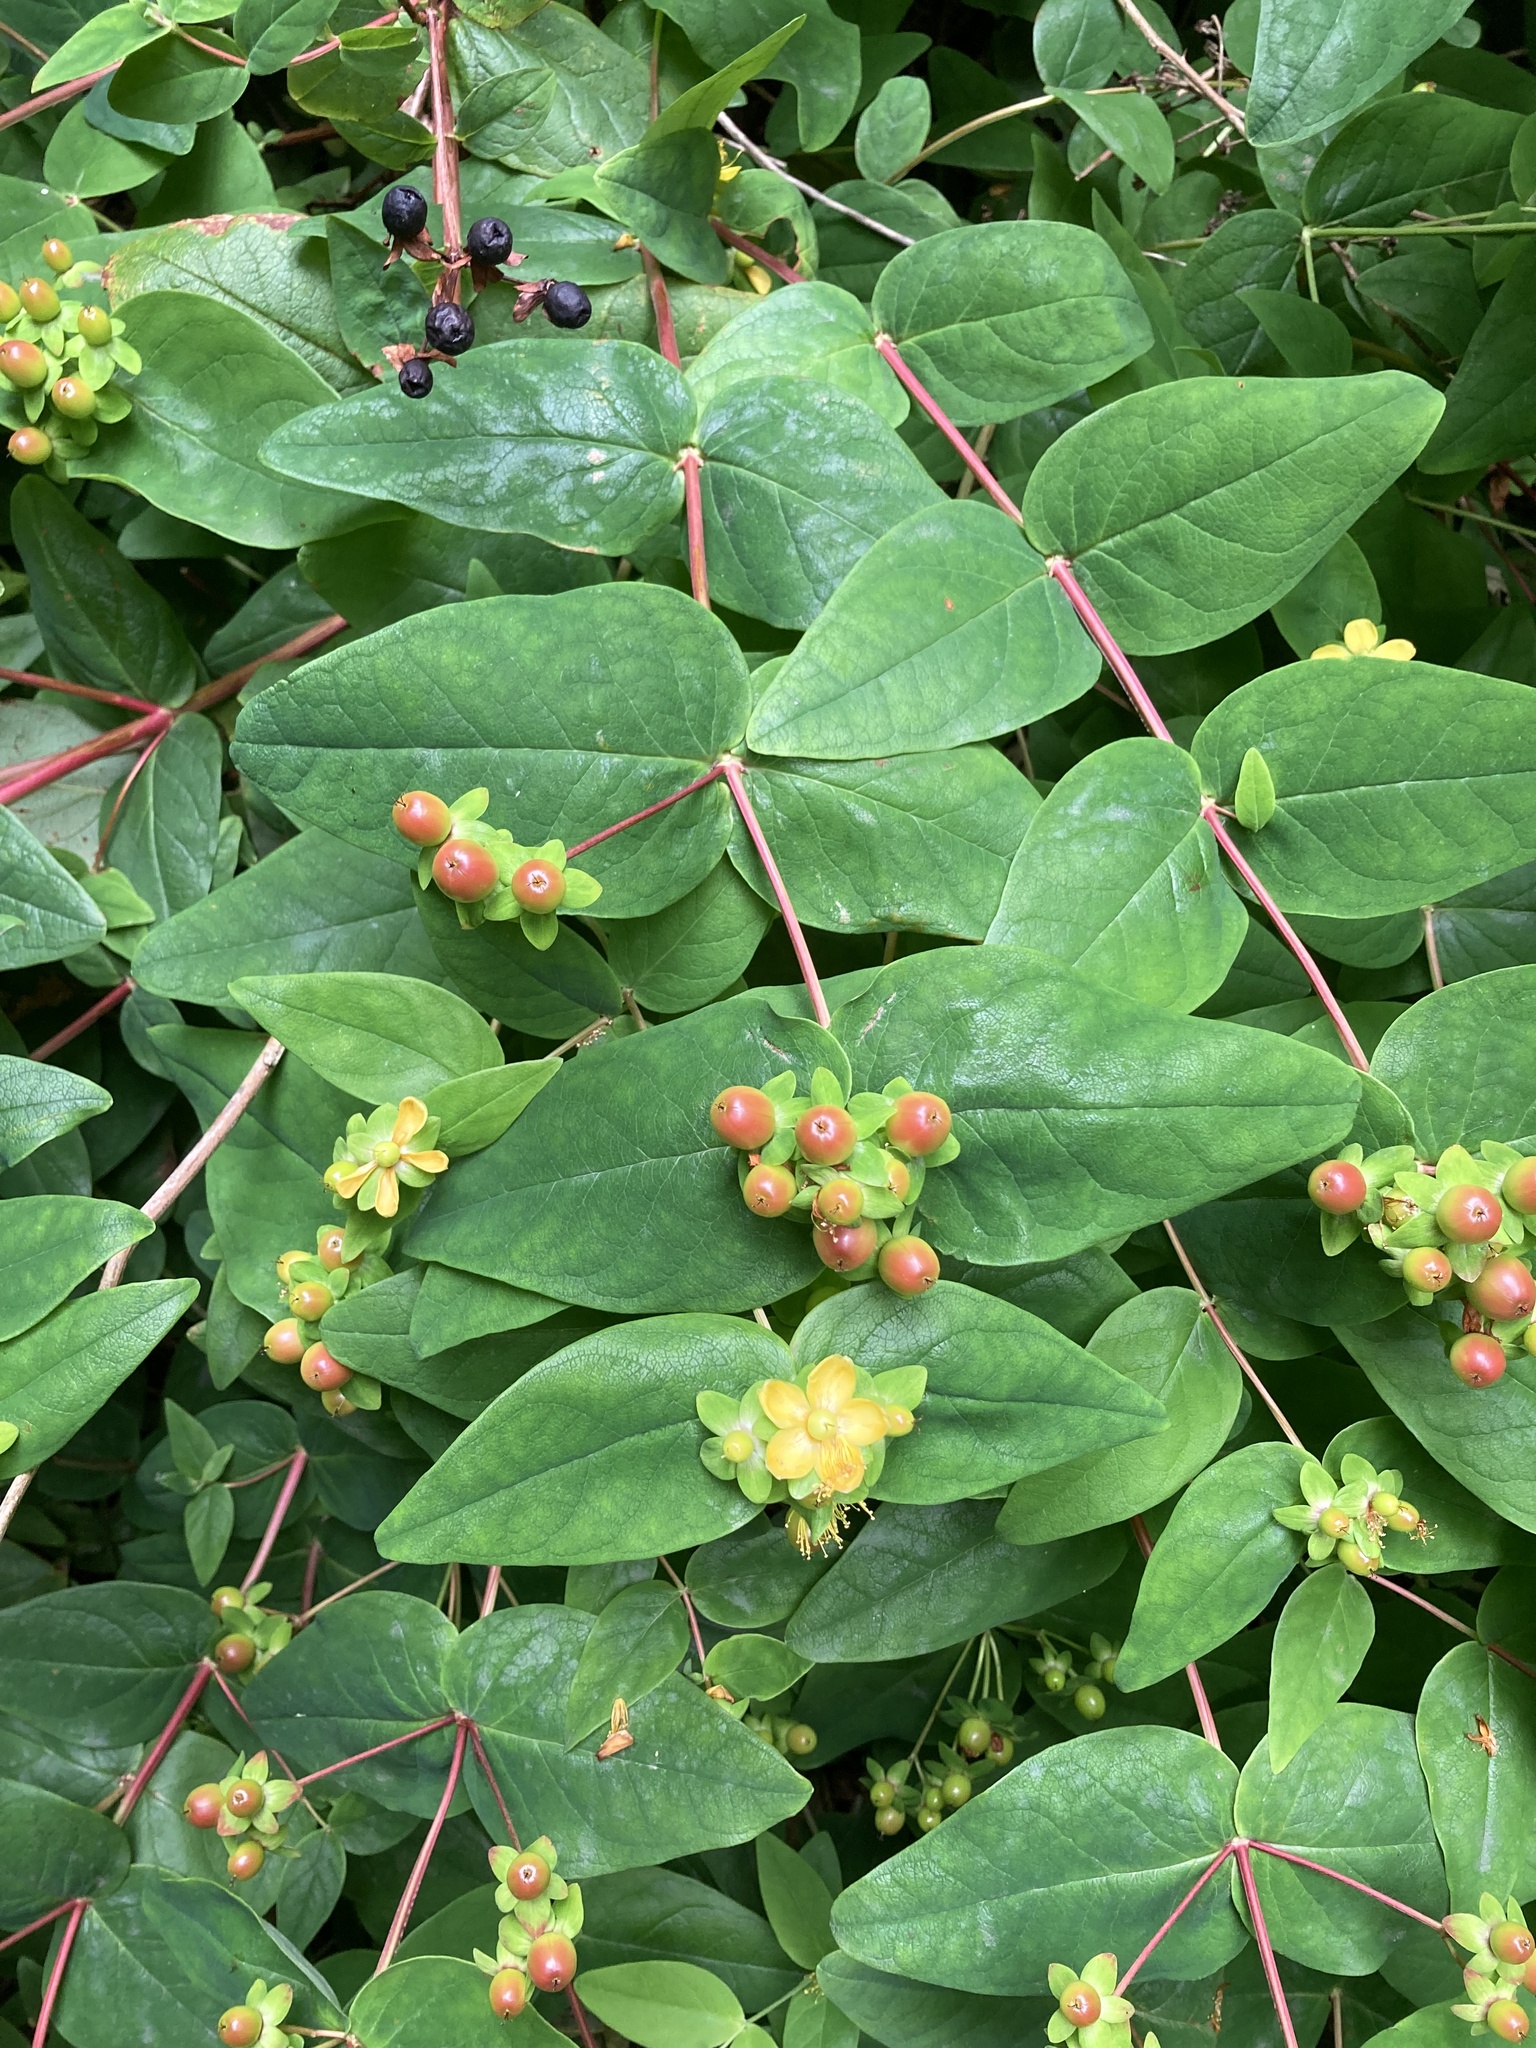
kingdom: Plantae
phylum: Tracheophyta
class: Magnoliopsida
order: Malpighiales
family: Hypericaceae
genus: Hypericum
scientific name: Hypericum androsaemum
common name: Sweet-amber
